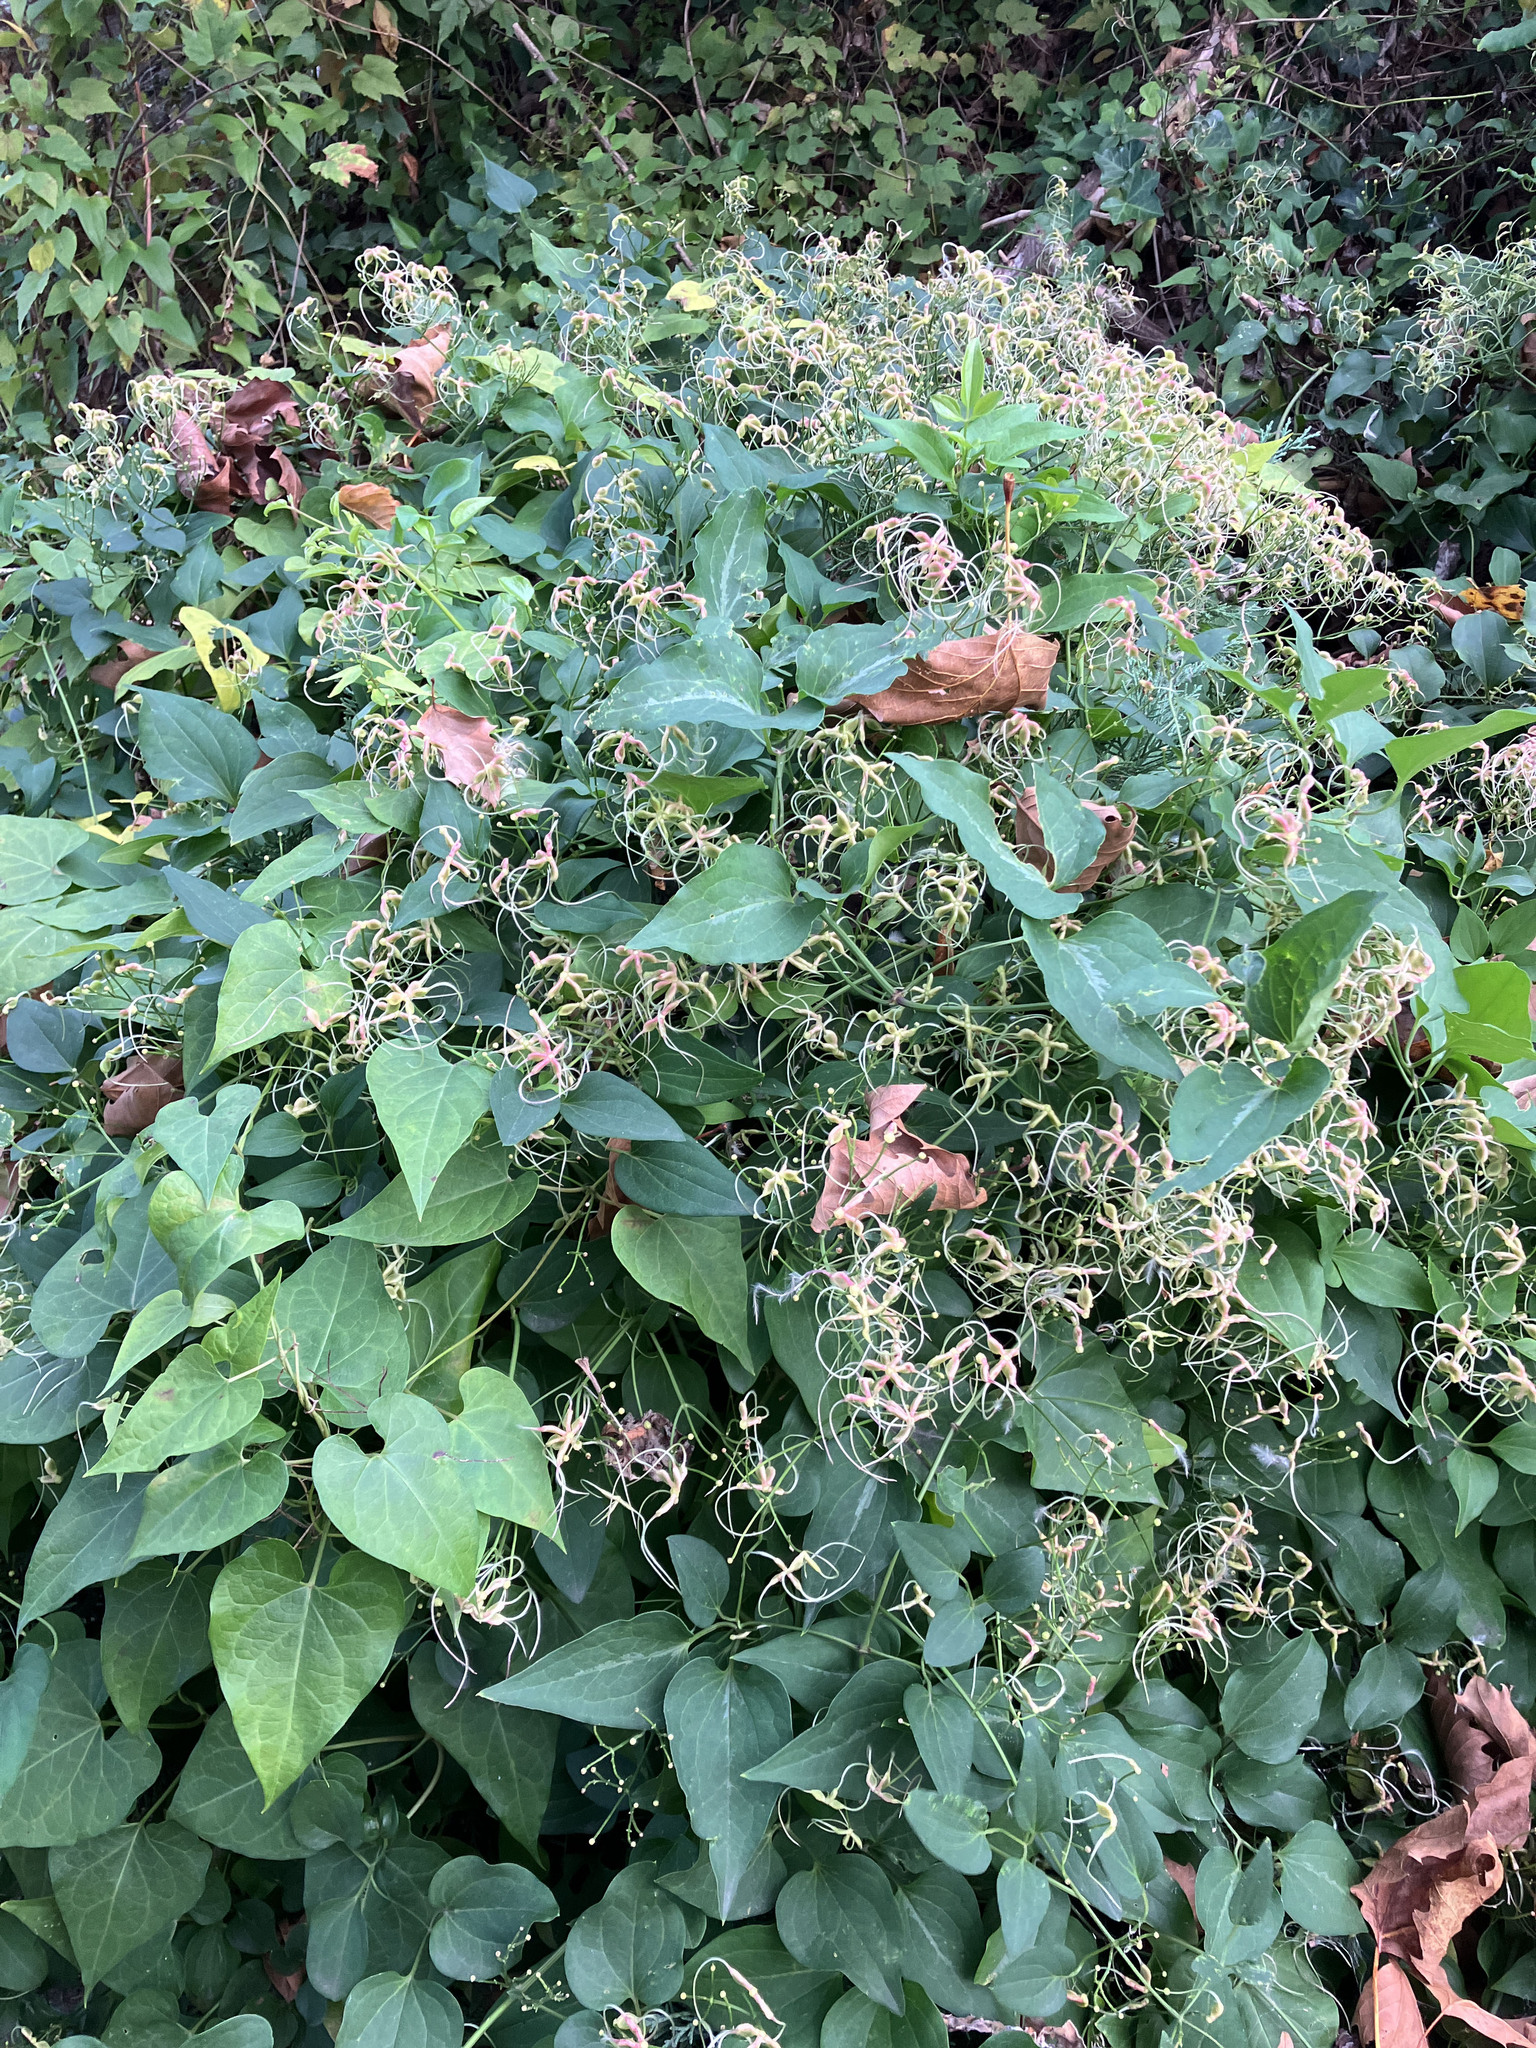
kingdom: Plantae
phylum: Tracheophyta
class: Magnoliopsida
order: Ranunculales
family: Ranunculaceae
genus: Clematis
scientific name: Clematis terniflora
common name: Sweet autumn clematis
